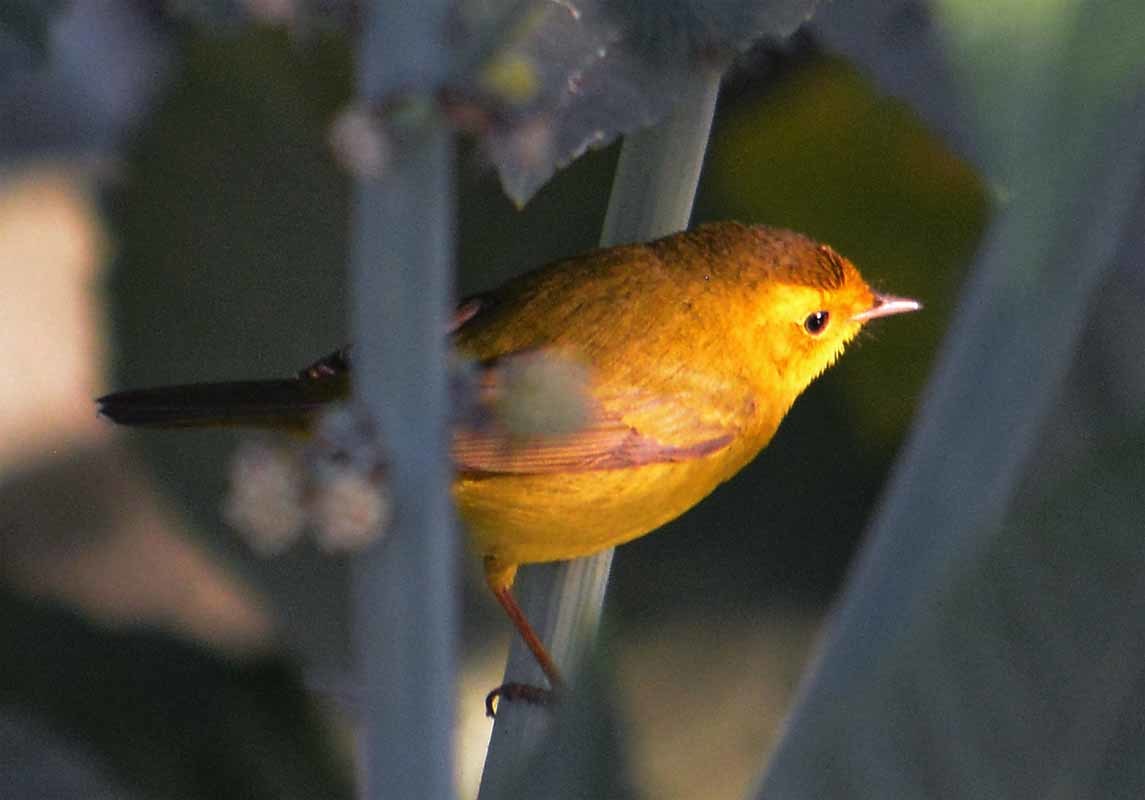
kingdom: Animalia
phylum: Chordata
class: Aves
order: Passeriformes
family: Parulidae
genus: Cardellina
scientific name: Cardellina pusilla
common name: Wilson's warbler
